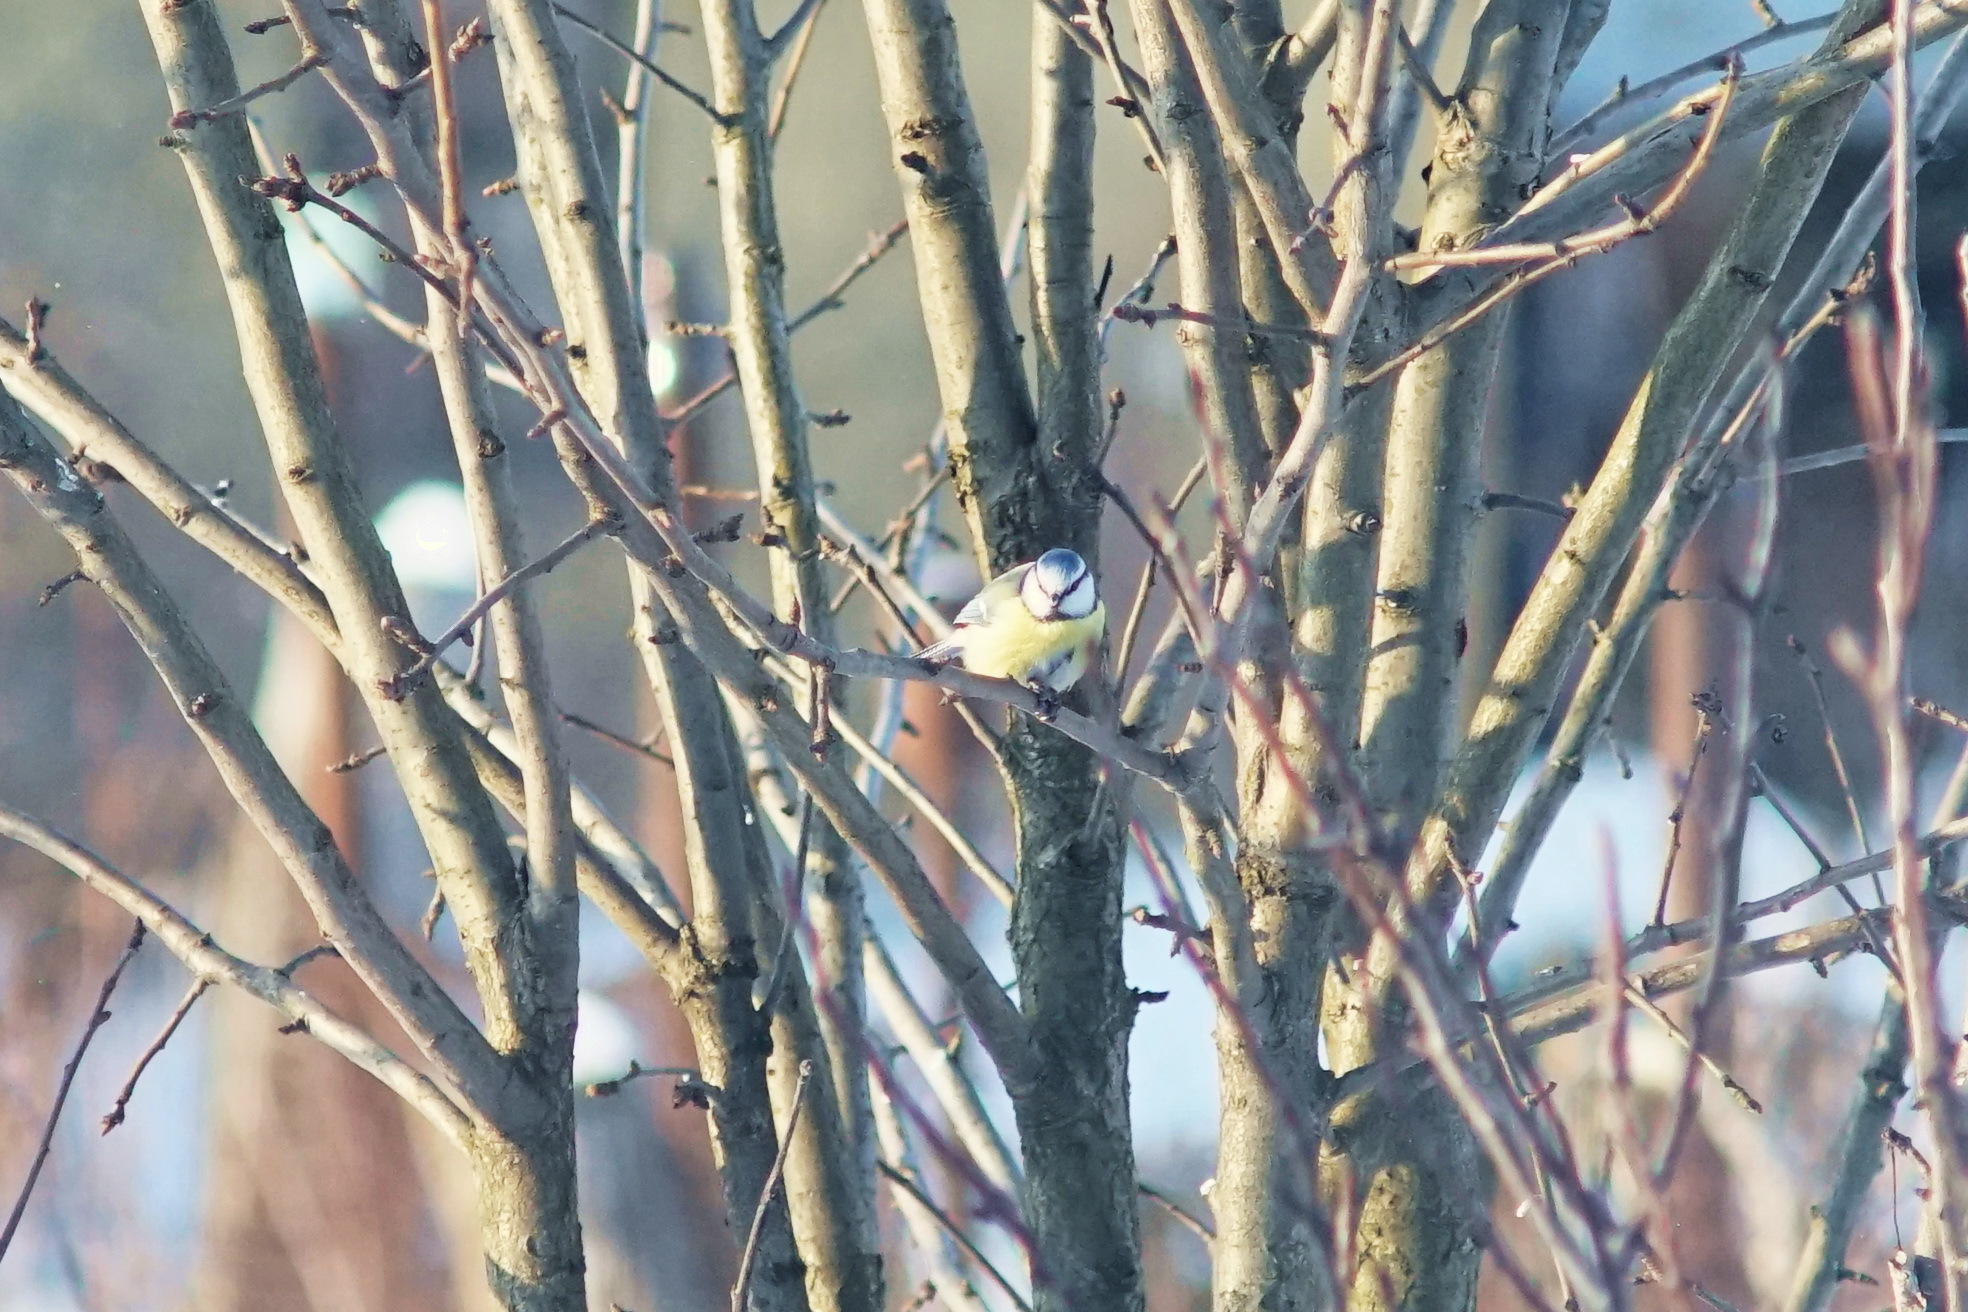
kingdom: Animalia
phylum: Chordata
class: Aves
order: Passeriformes
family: Paridae
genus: Cyanistes
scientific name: Cyanistes caeruleus
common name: Eurasian blue tit
